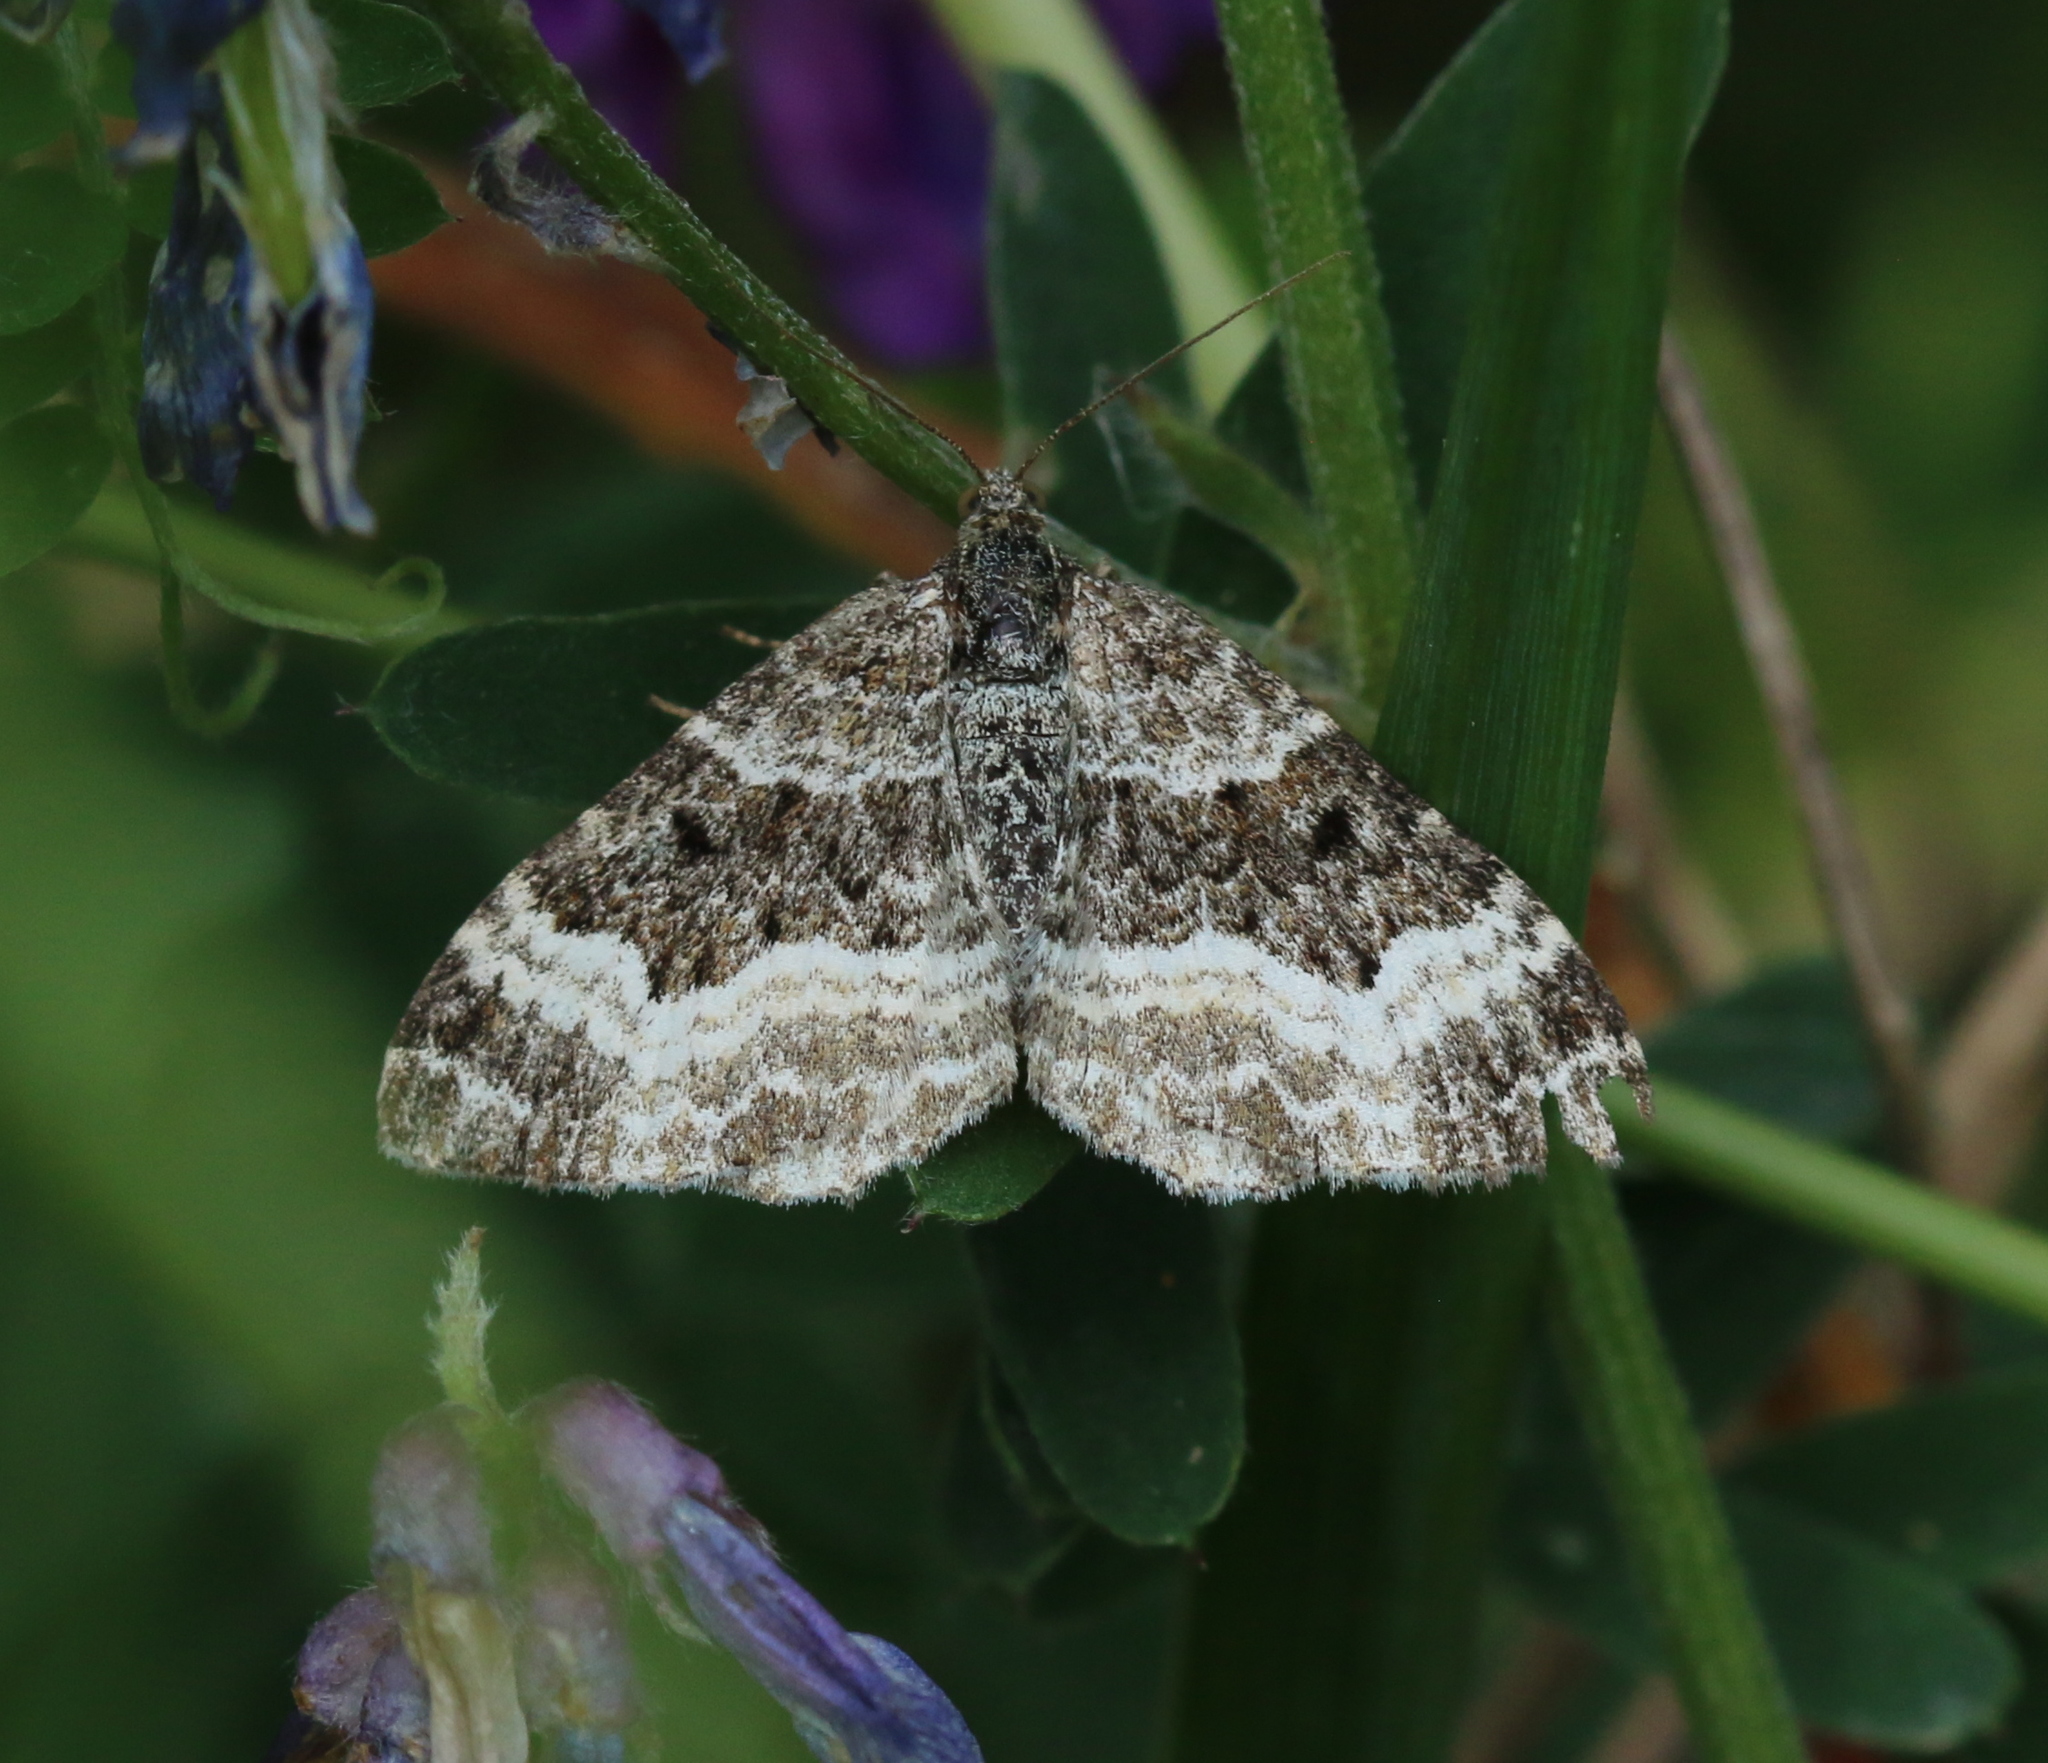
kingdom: Animalia
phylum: Arthropoda
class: Insecta
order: Lepidoptera
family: Geometridae
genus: Epirrhoe
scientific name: Epirrhoe alternata
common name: Common carpet
